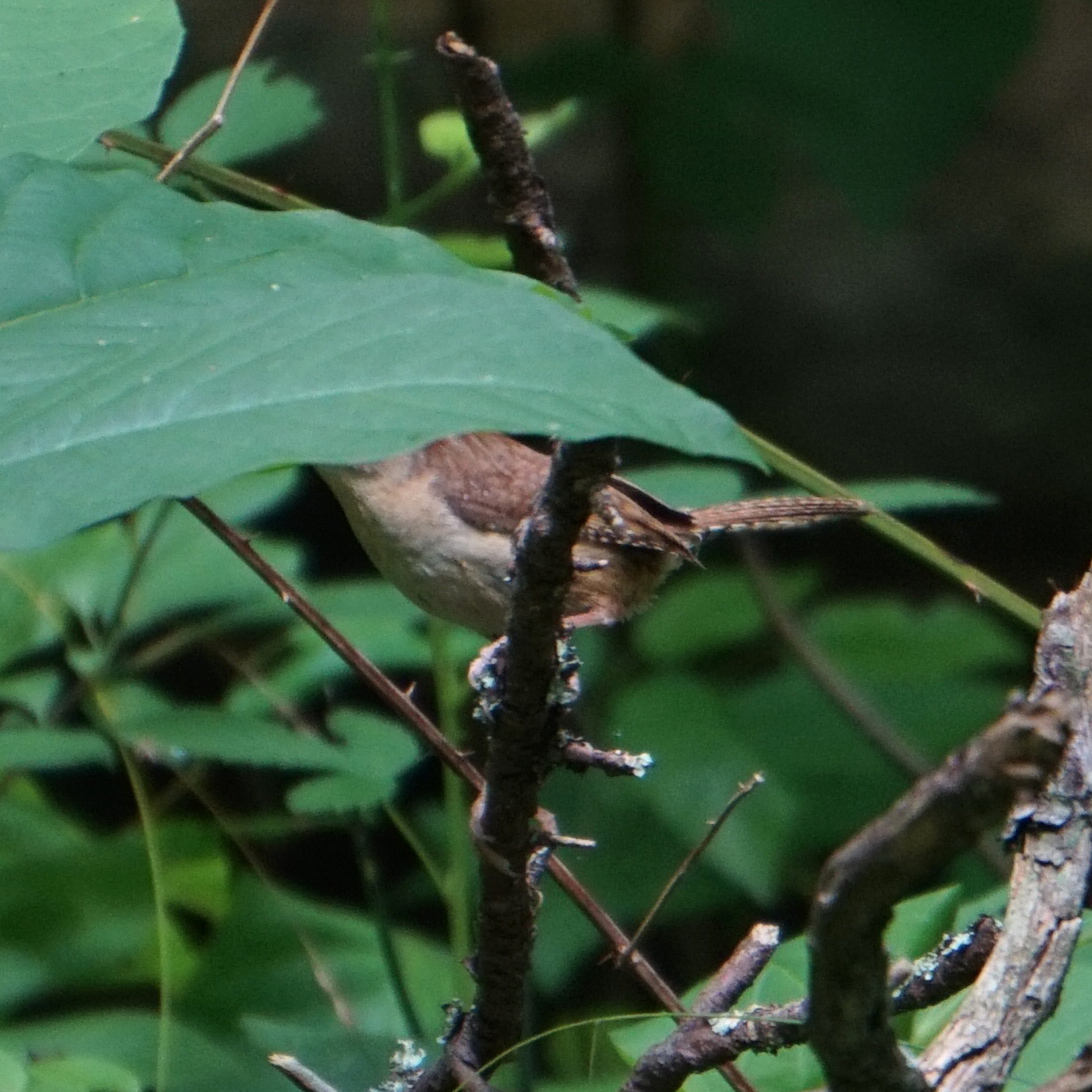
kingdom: Animalia
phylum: Chordata
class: Aves
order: Passeriformes
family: Troglodytidae
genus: Thryothorus
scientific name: Thryothorus ludovicianus
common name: Carolina wren
